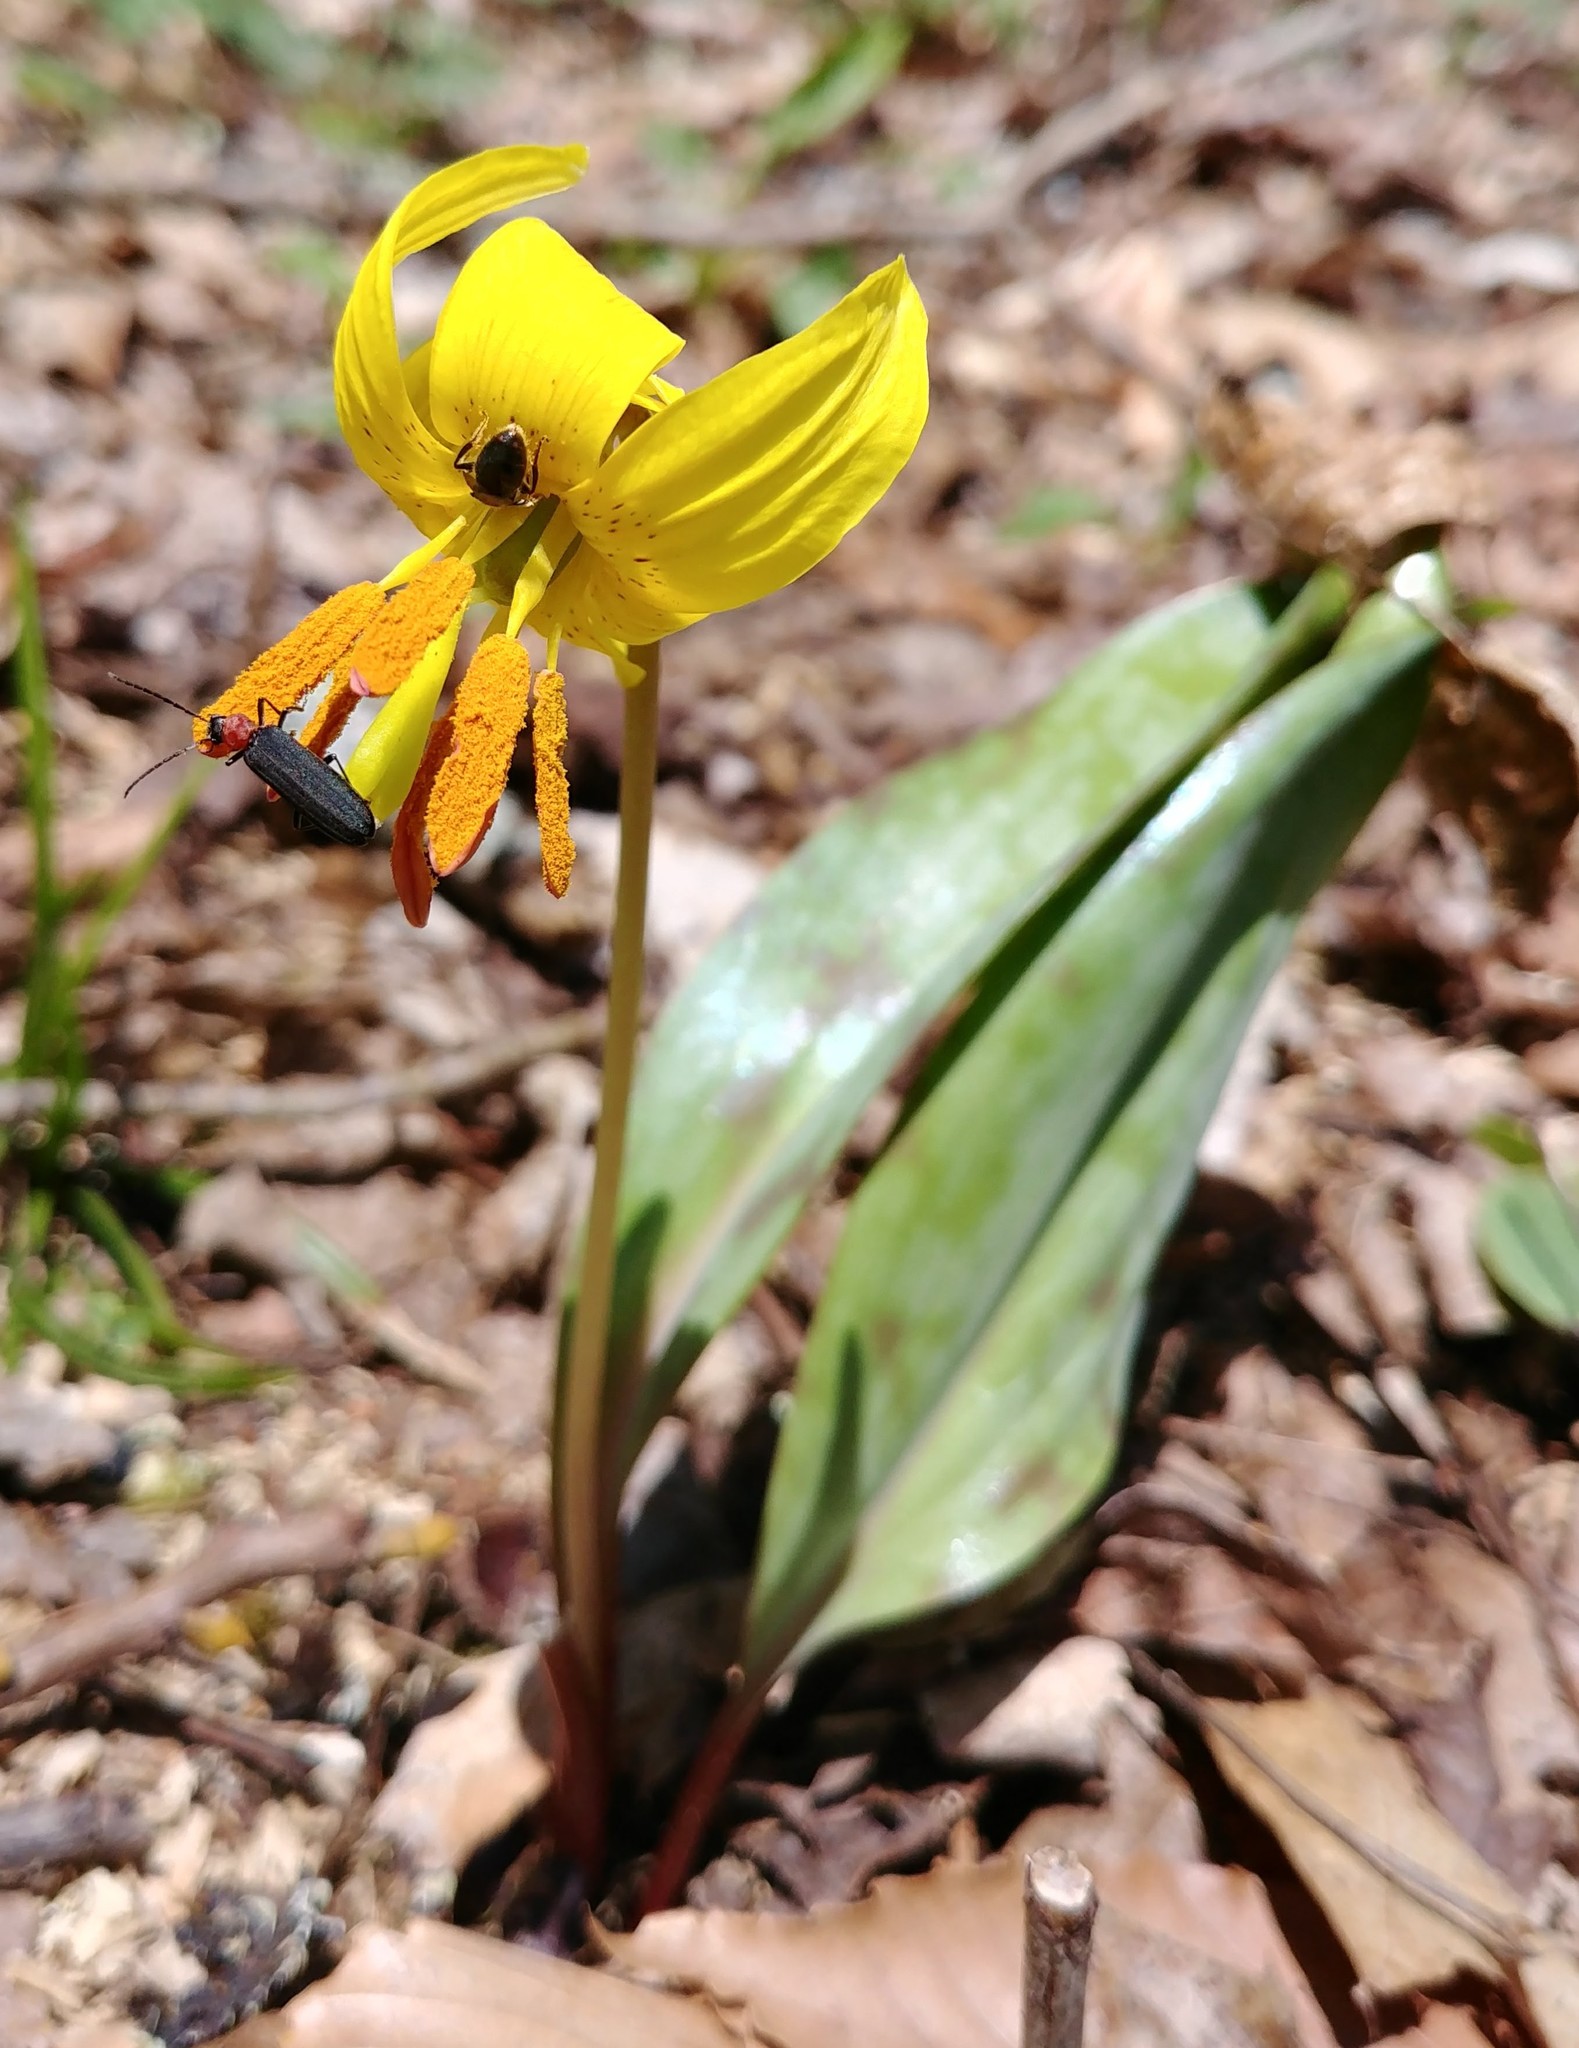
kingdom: Animalia
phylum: Arthropoda
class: Insecta
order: Coleoptera
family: Oedemeridae
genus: Ischnomera
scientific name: Ischnomera
